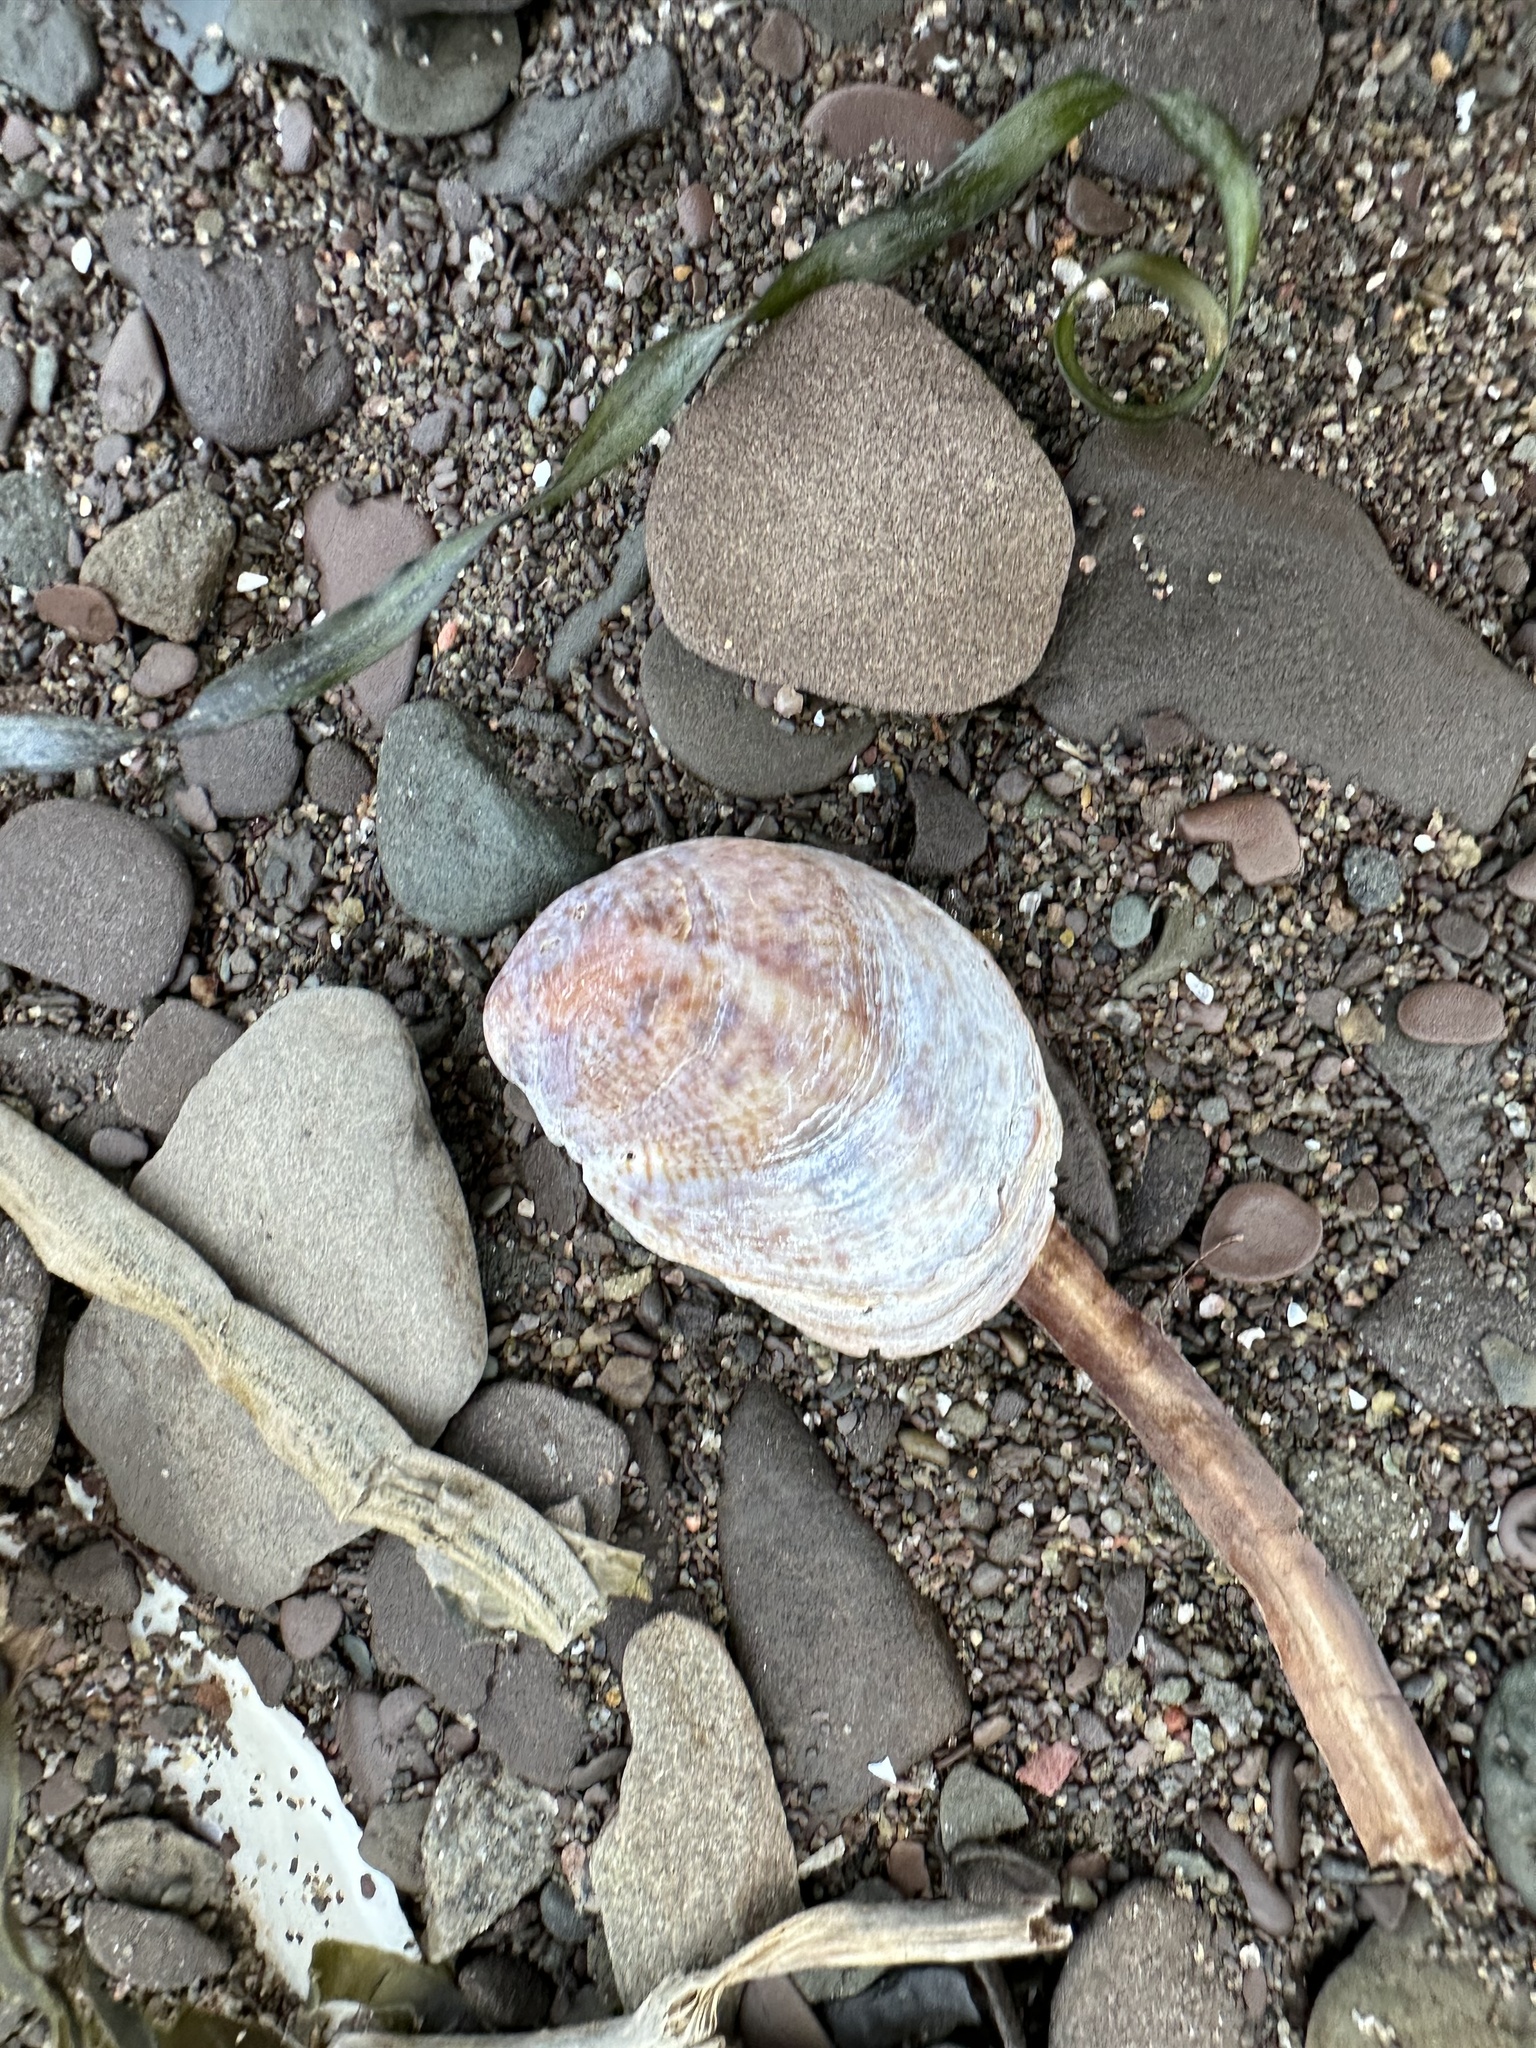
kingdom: Animalia
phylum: Mollusca
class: Gastropoda
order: Littorinimorpha
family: Calyptraeidae
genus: Crepidula
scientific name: Crepidula fornicata
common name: Slipper limpet
